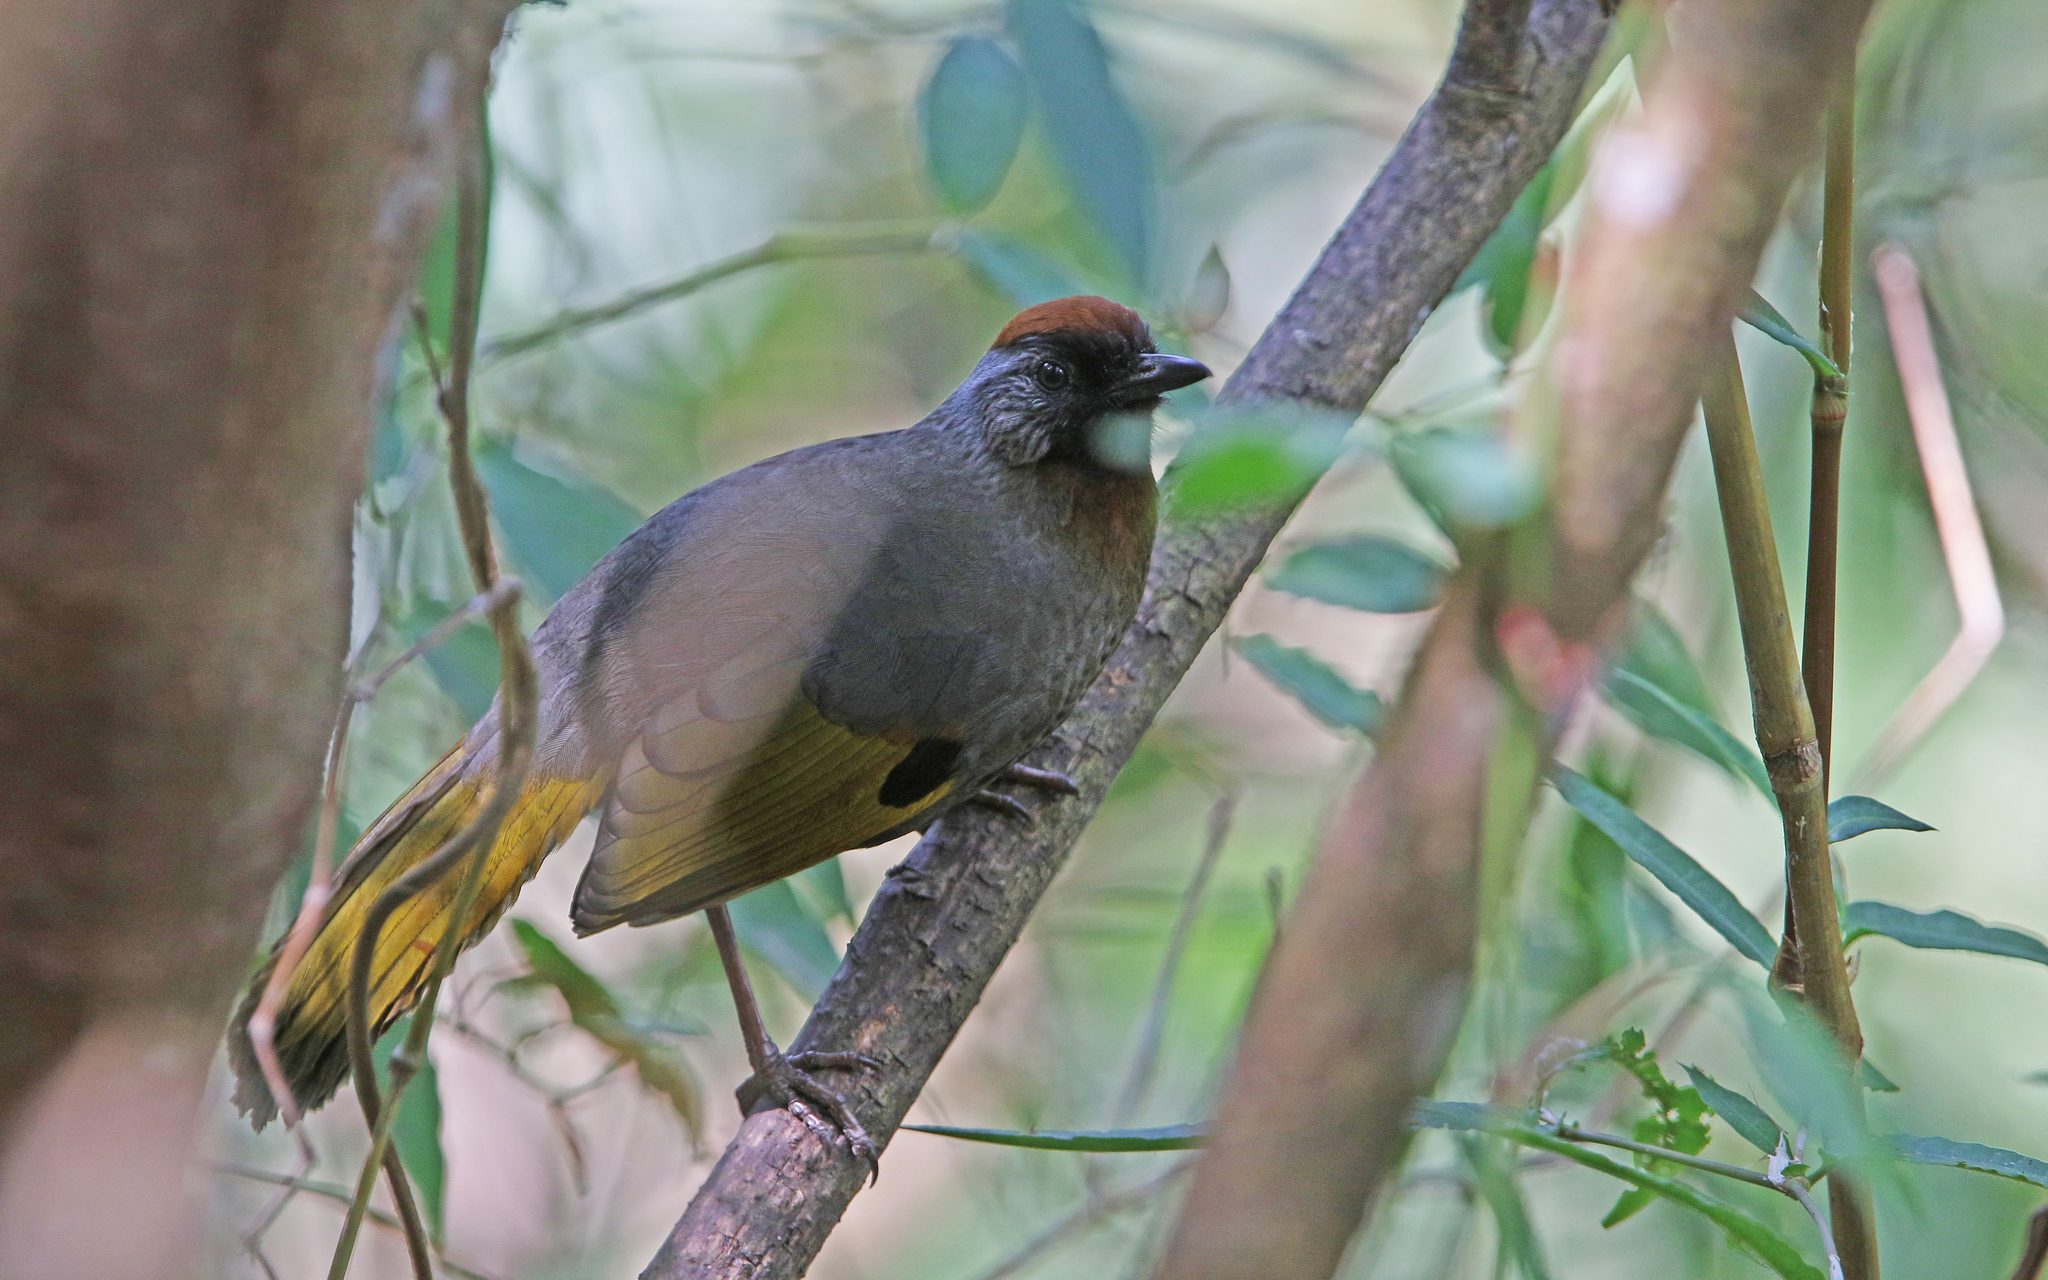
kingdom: Animalia
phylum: Chordata
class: Aves
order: Passeriformes
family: Leiothrichidae
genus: Trochalopteron
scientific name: Trochalopteron melanostigma
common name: Silver-eared laughingthrush
